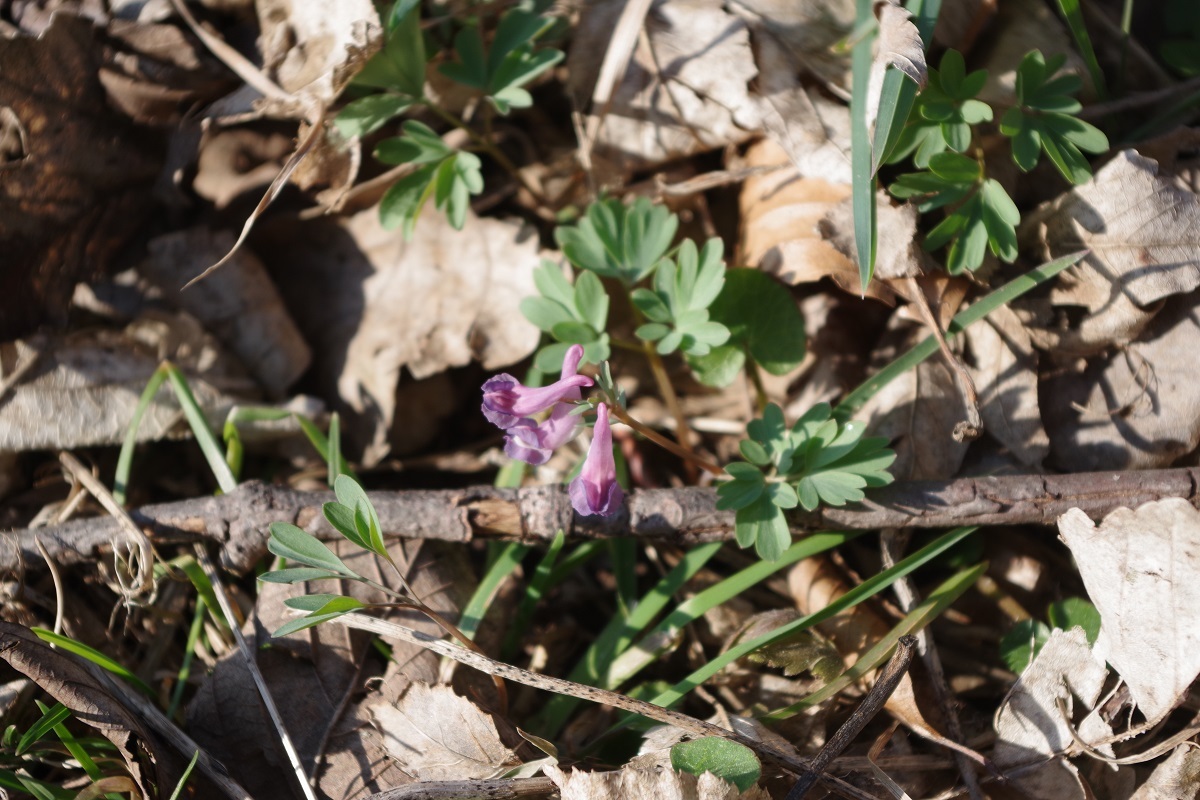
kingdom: Plantae
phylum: Tracheophyta
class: Magnoliopsida
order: Ranunculales
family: Papaveraceae
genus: Corydalis
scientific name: Corydalis solida
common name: Bird-in-a-bush
